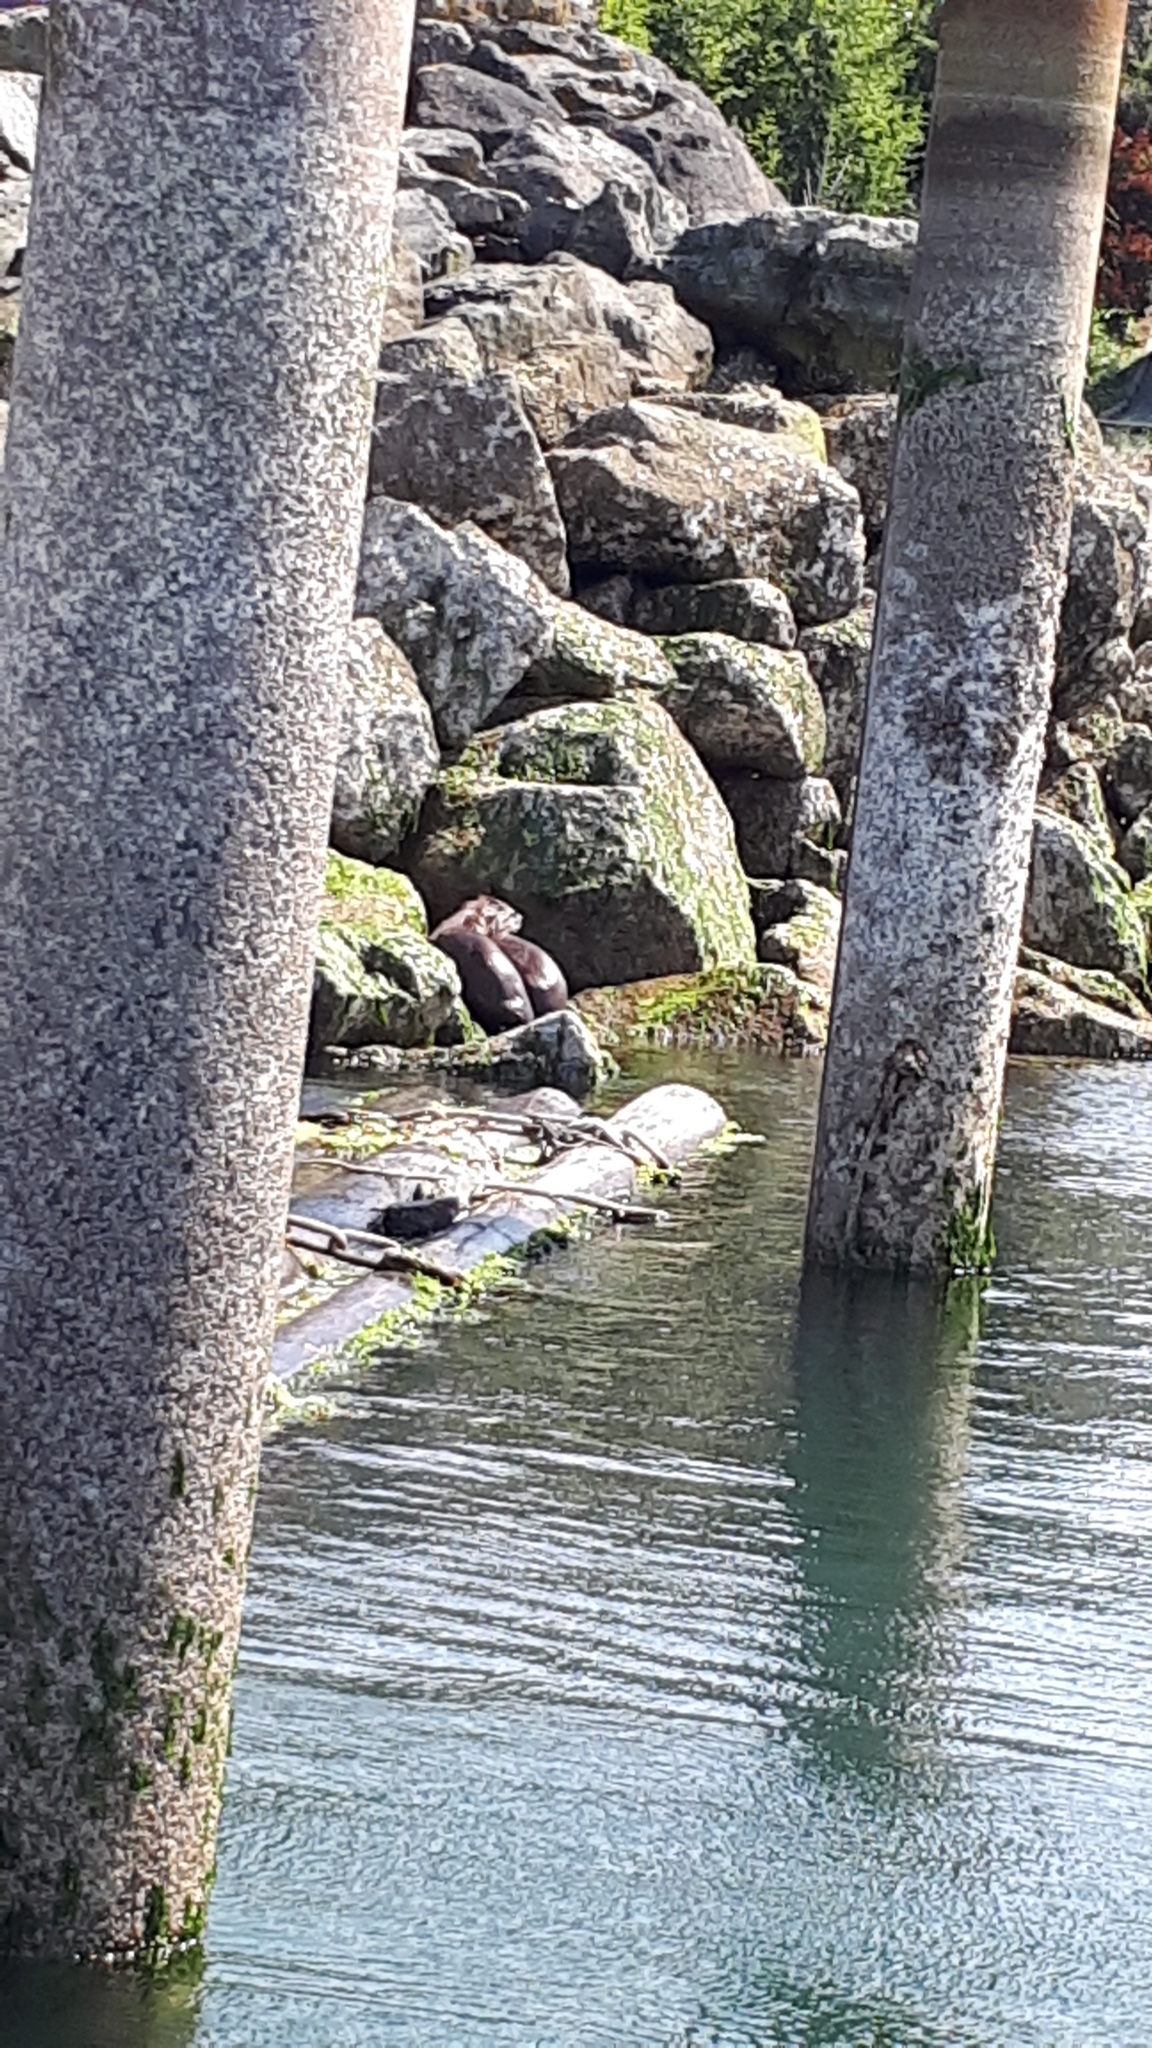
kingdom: Animalia
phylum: Chordata
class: Mammalia
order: Carnivora
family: Mustelidae
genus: Lontra
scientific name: Lontra canadensis
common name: North american river otter
